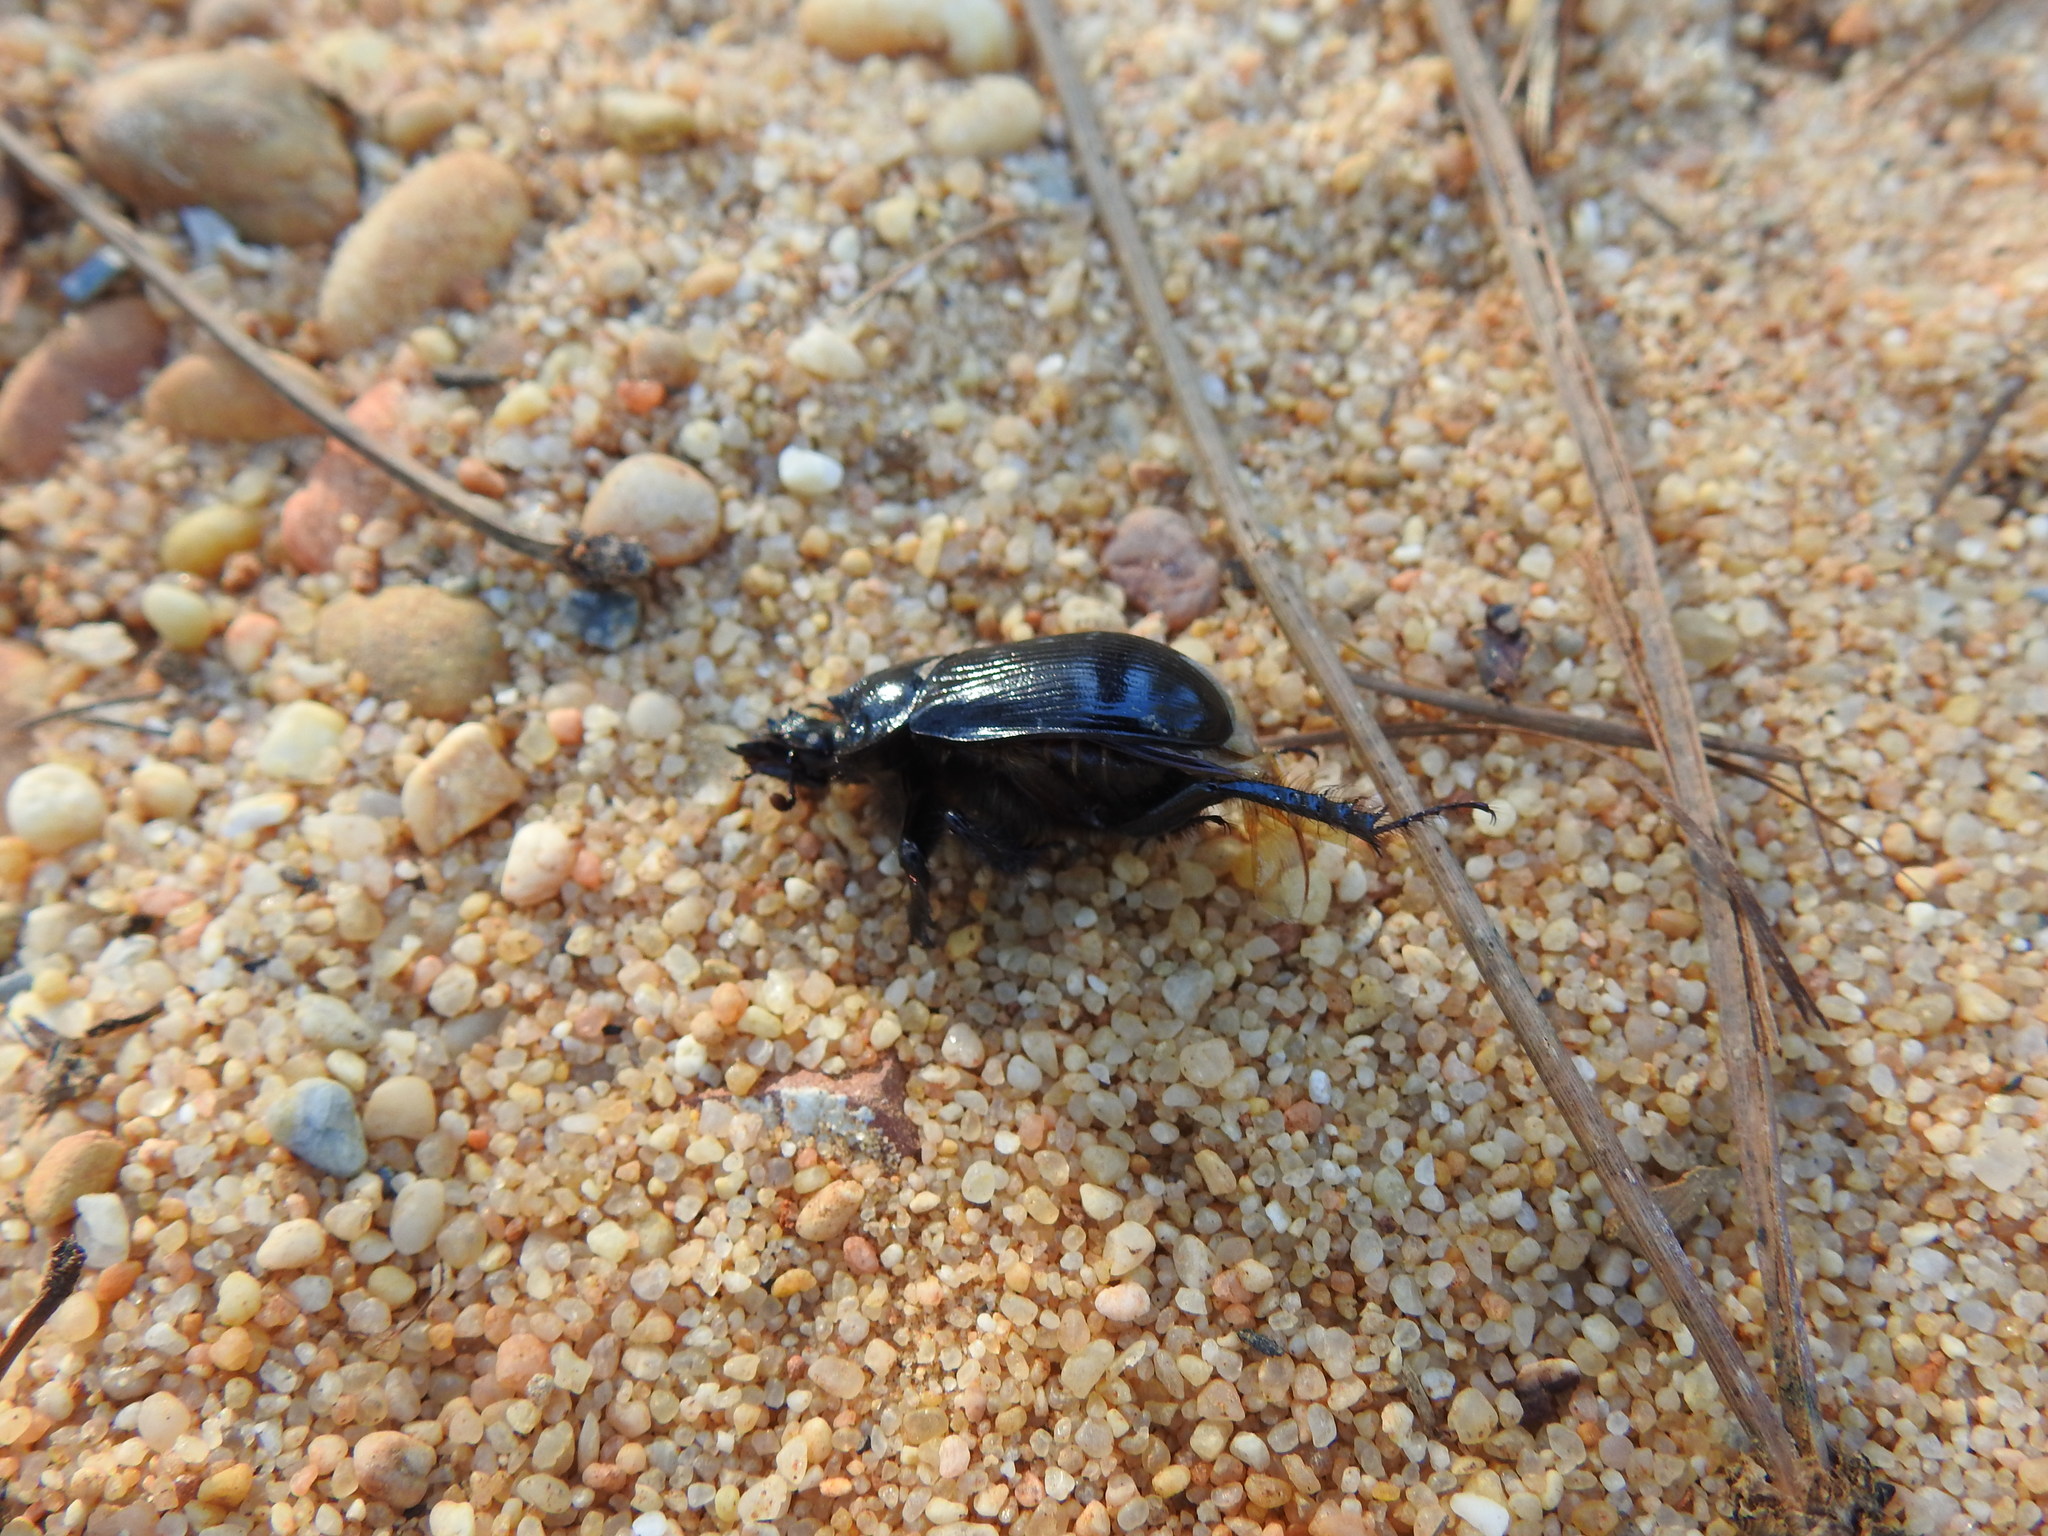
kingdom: Animalia
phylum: Arthropoda
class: Insecta
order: Coleoptera
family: Geotrupidae
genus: Ceratophyus
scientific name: Ceratophyus hoffmannseggi
